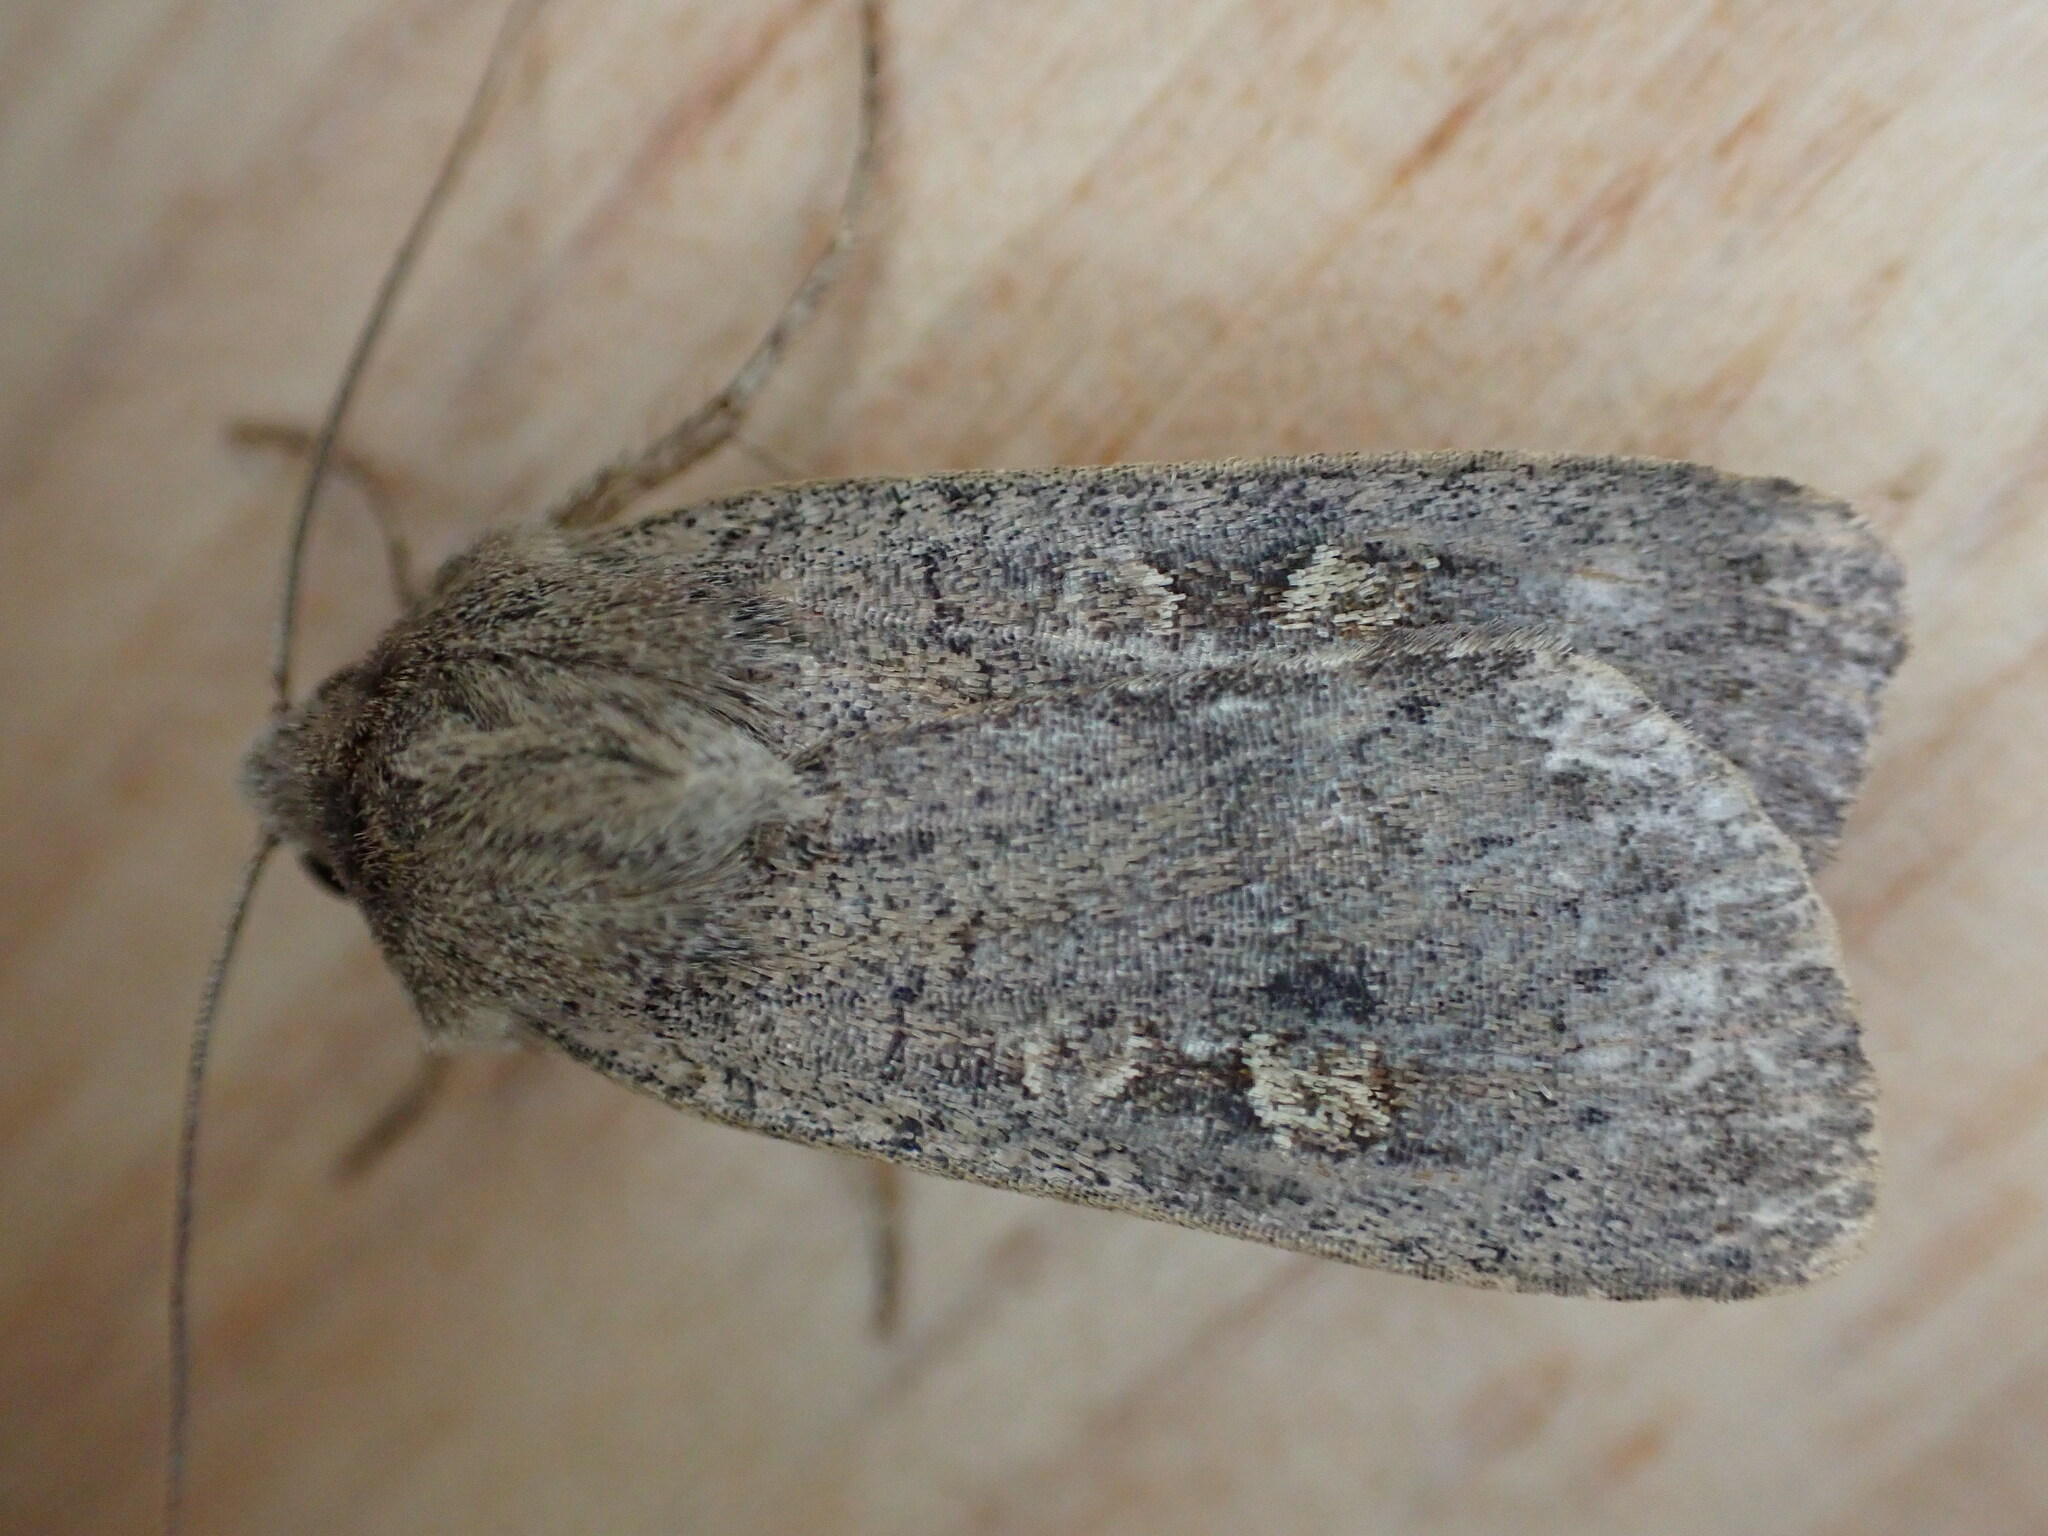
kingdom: Animalia
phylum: Arthropoda
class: Insecta
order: Lepidoptera
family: Noctuidae
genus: Xestia
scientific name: Xestia xanthographa
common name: Square-spot rustic
